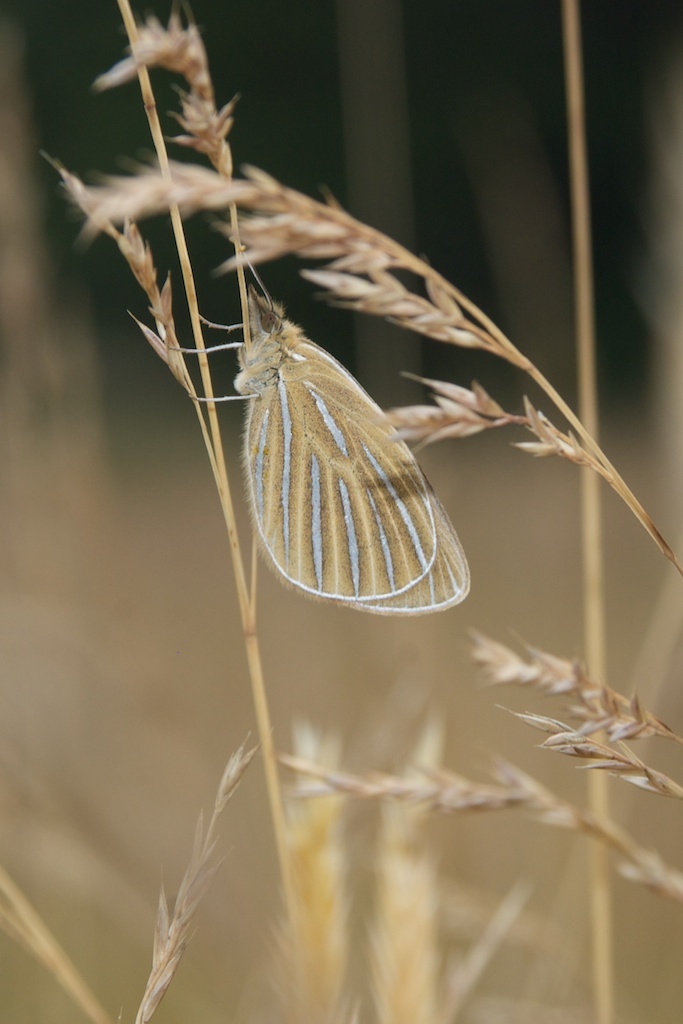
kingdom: Animalia
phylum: Arthropoda
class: Insecta
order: Lepidoptera
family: Nymphalidae
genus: Argyrophenga
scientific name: Argyrophenga antipodum
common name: Common tussock butterfly
